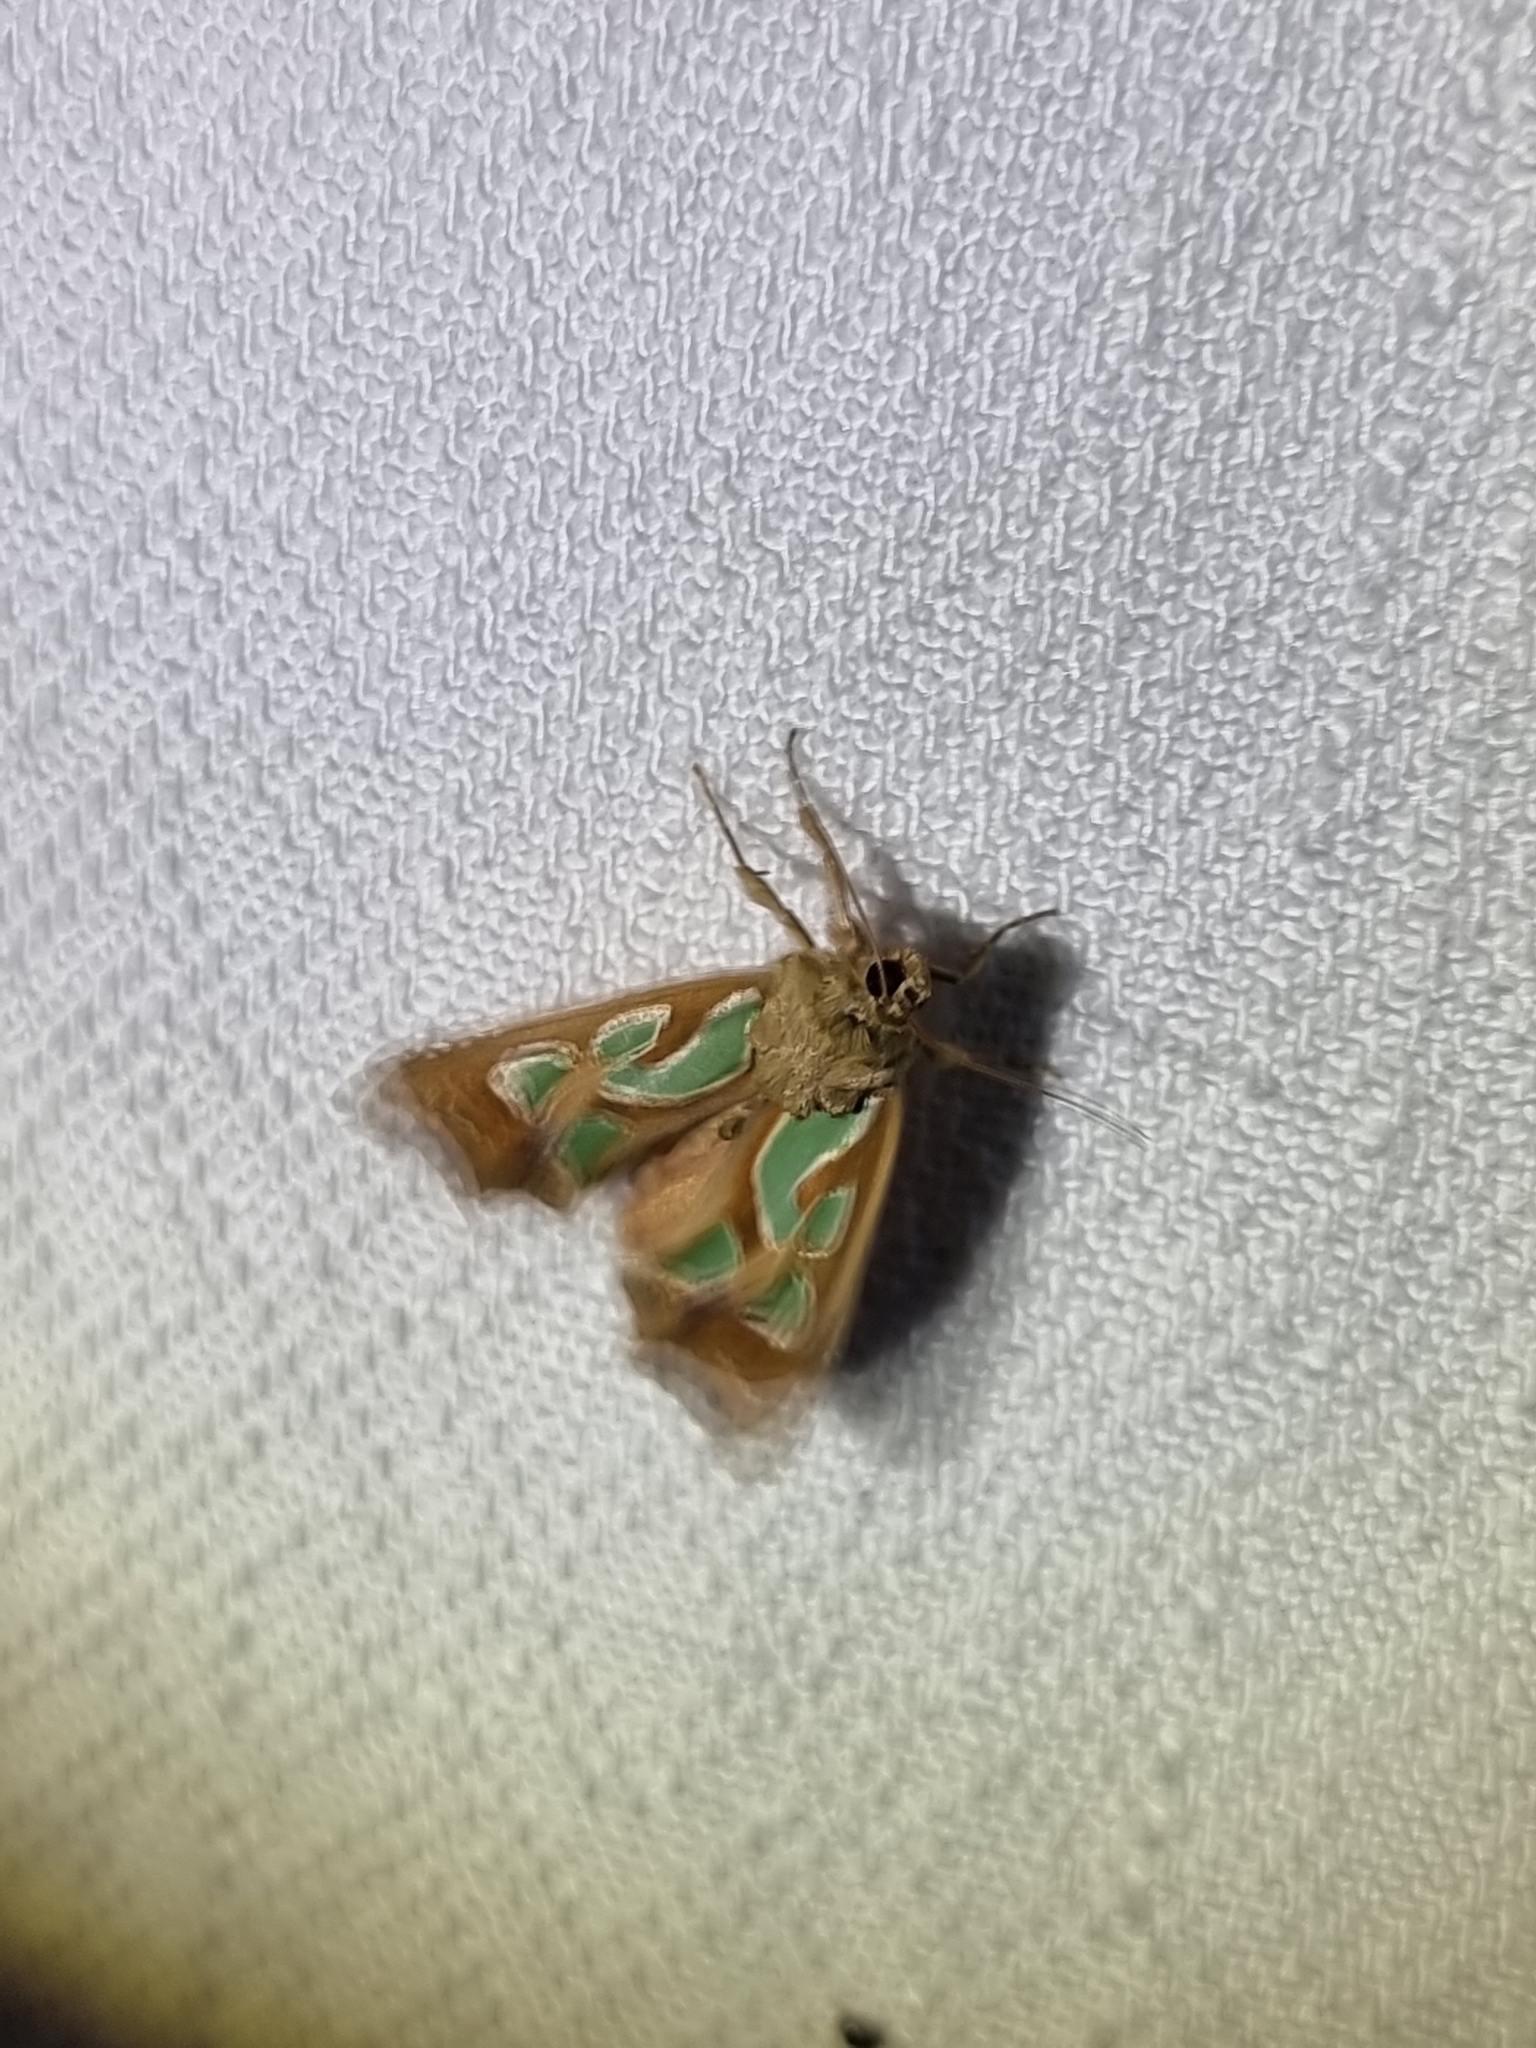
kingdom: Animalia
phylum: Arthropoda
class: Insecta
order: Lepidoptera
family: Noctuidae
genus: Cosmodes
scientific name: Cosmodes elegans
